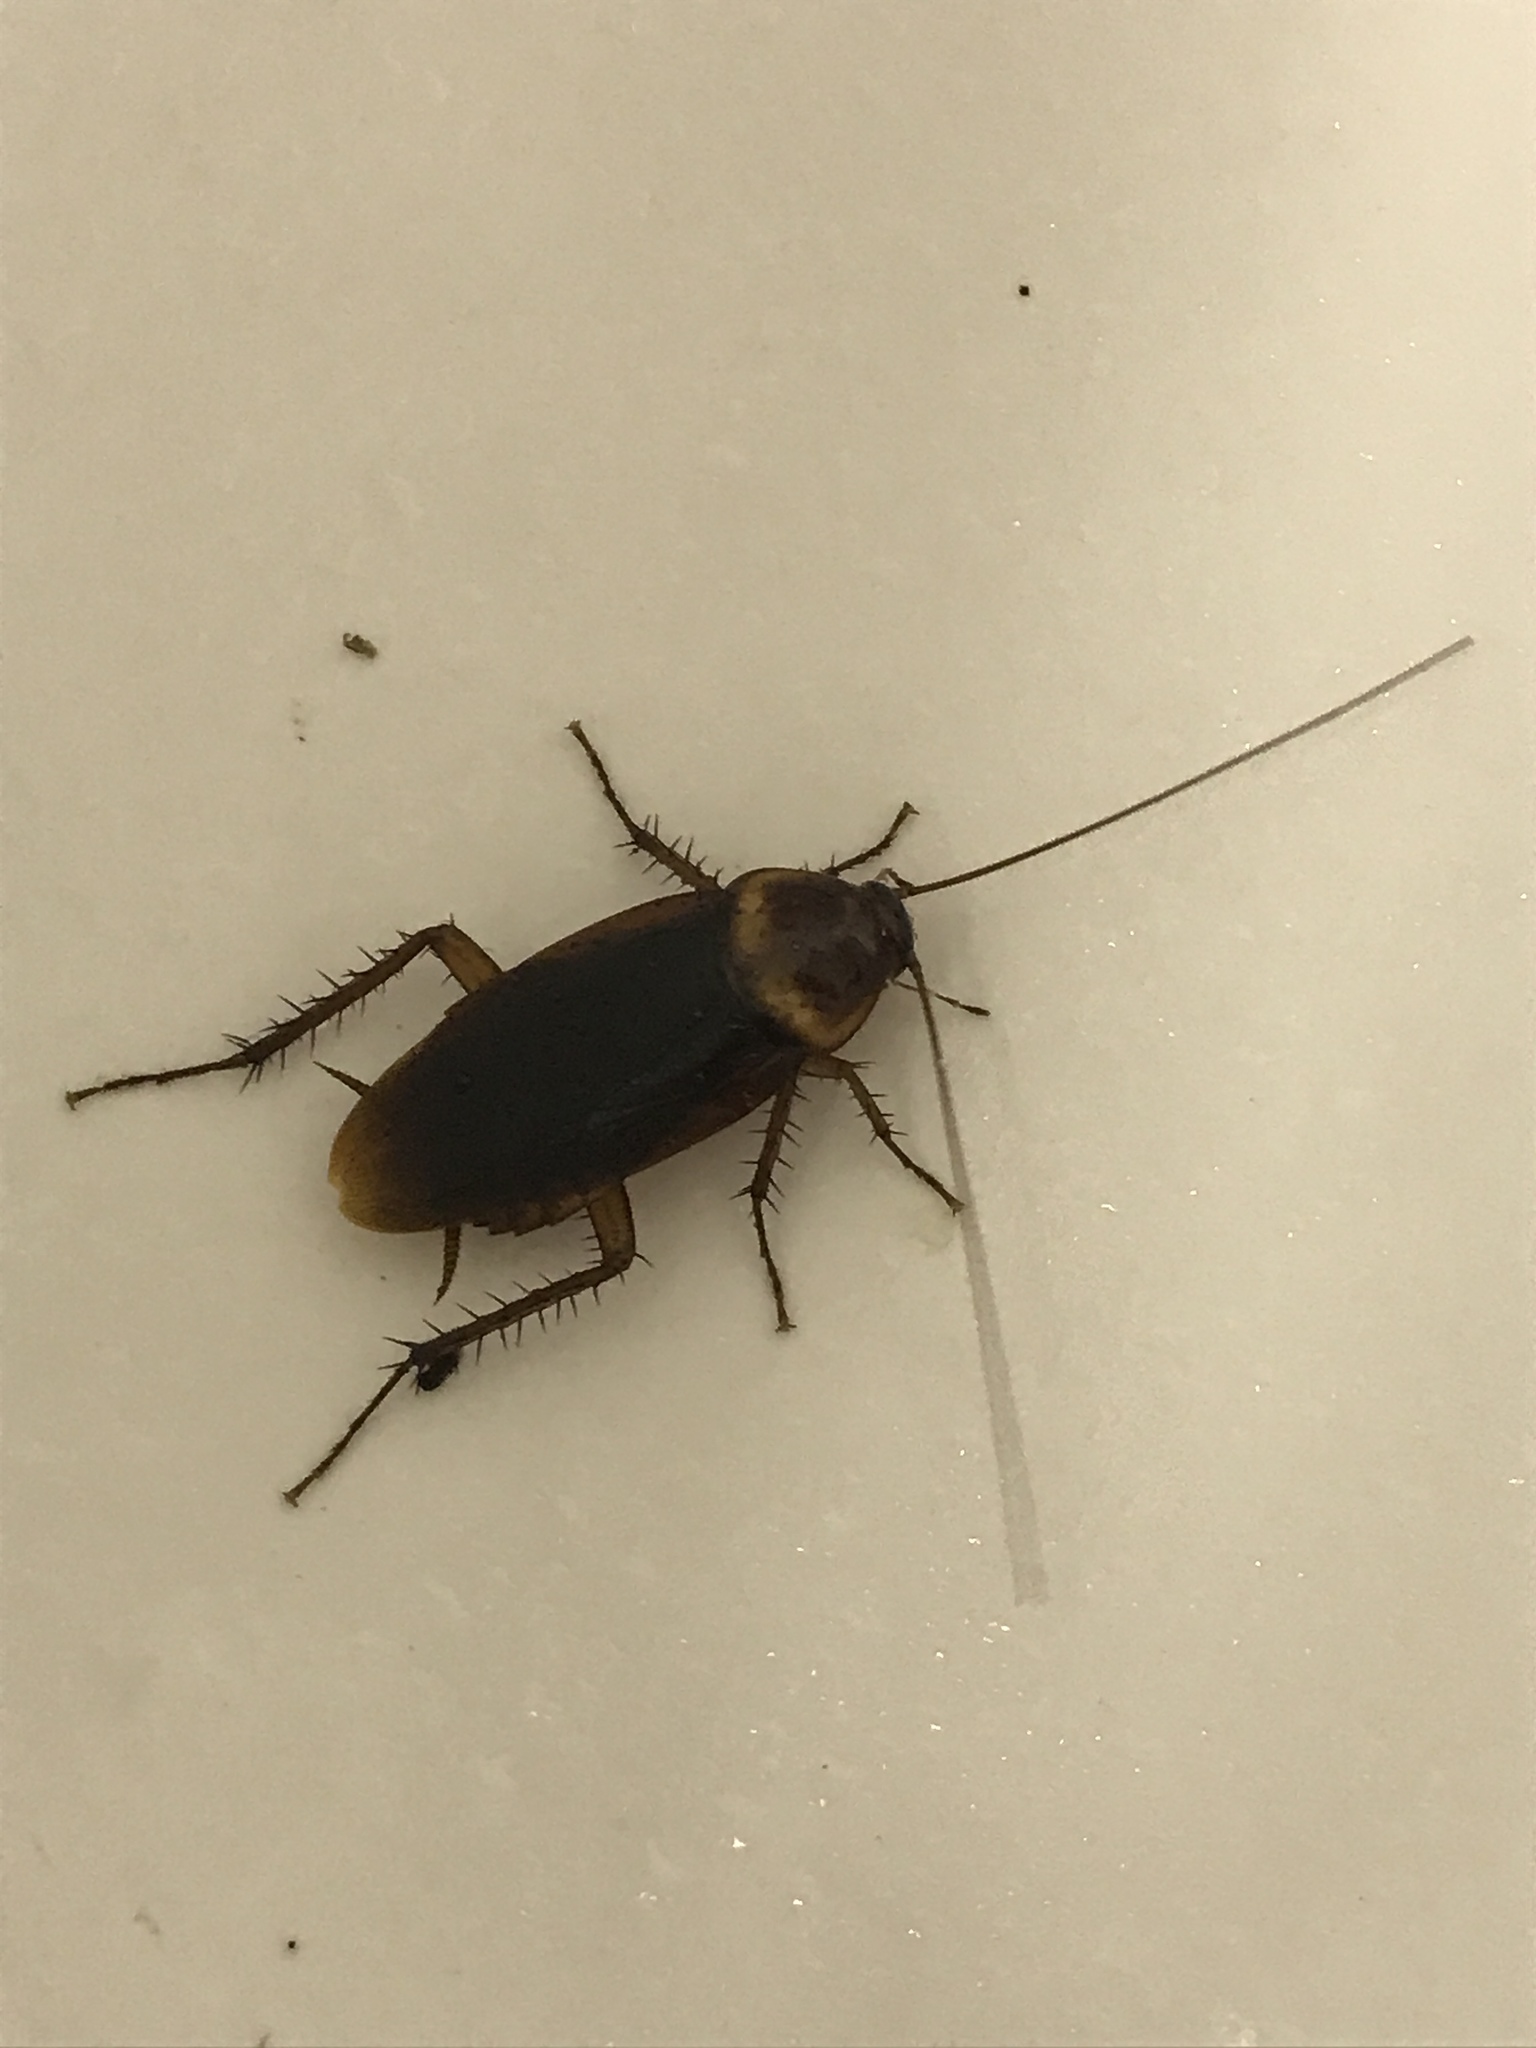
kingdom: Animalia
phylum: Arthropoda
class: Insecta
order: Blattodea
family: Blattidae
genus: Periplaneta
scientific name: Periplaneta americana
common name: American cockroach
